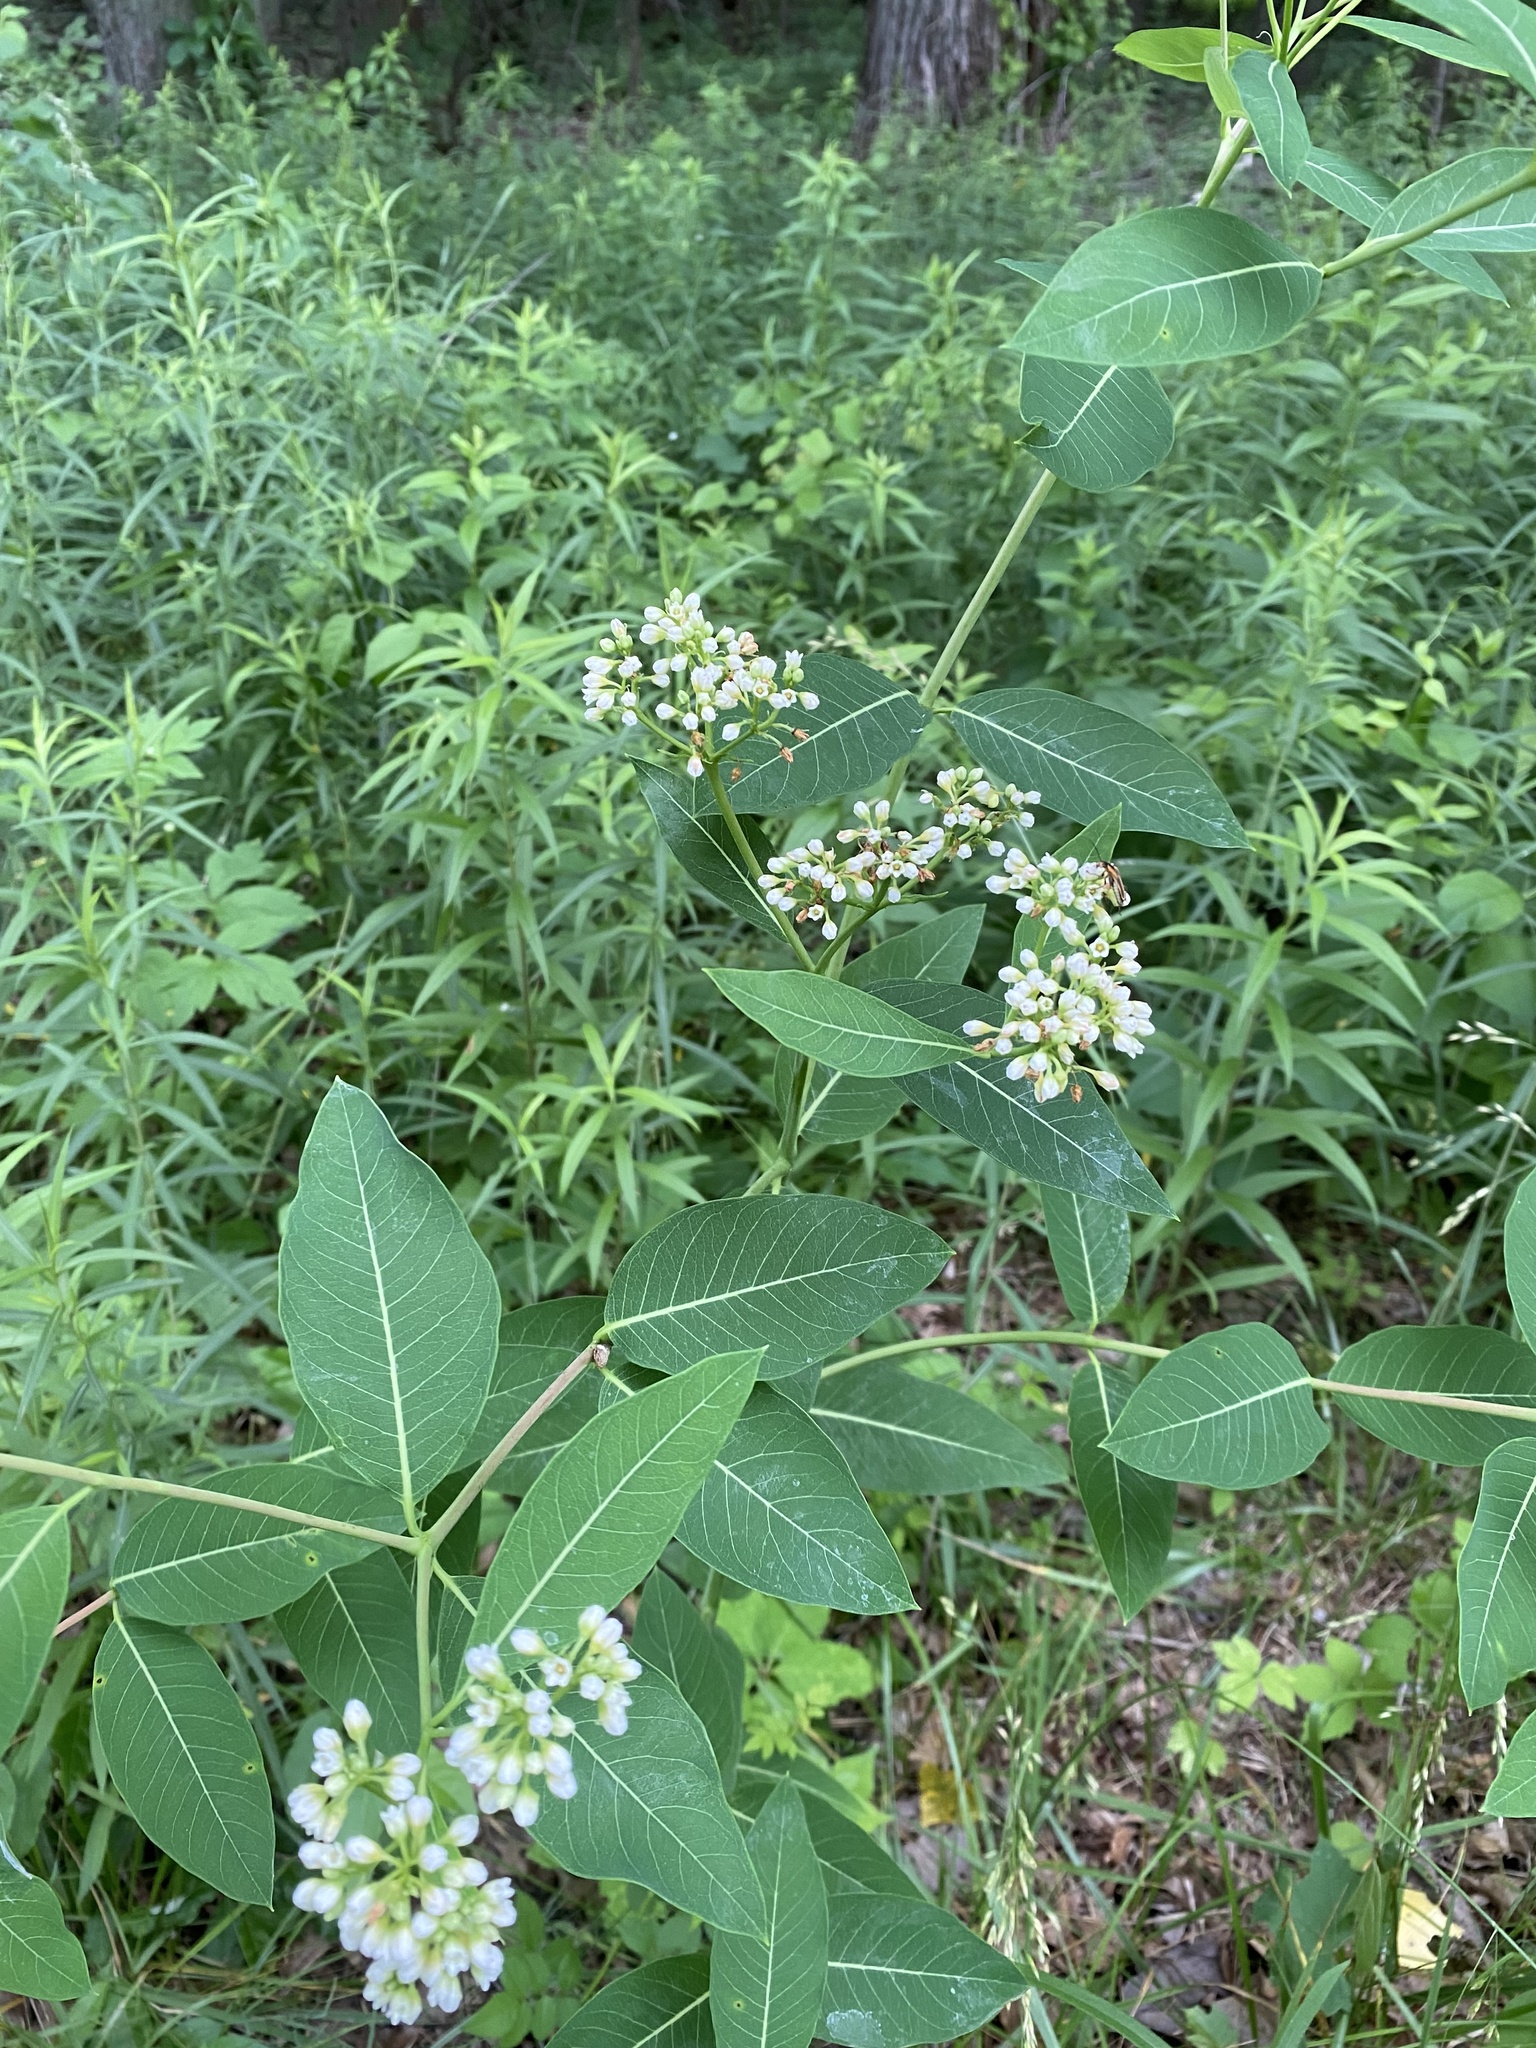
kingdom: Plantae
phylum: Tracheophyta
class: Magnoliopsida
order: Gentianales
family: Apocynaceae
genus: Apocynum
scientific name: Apocynum cannabinum
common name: Hemp dogbane
